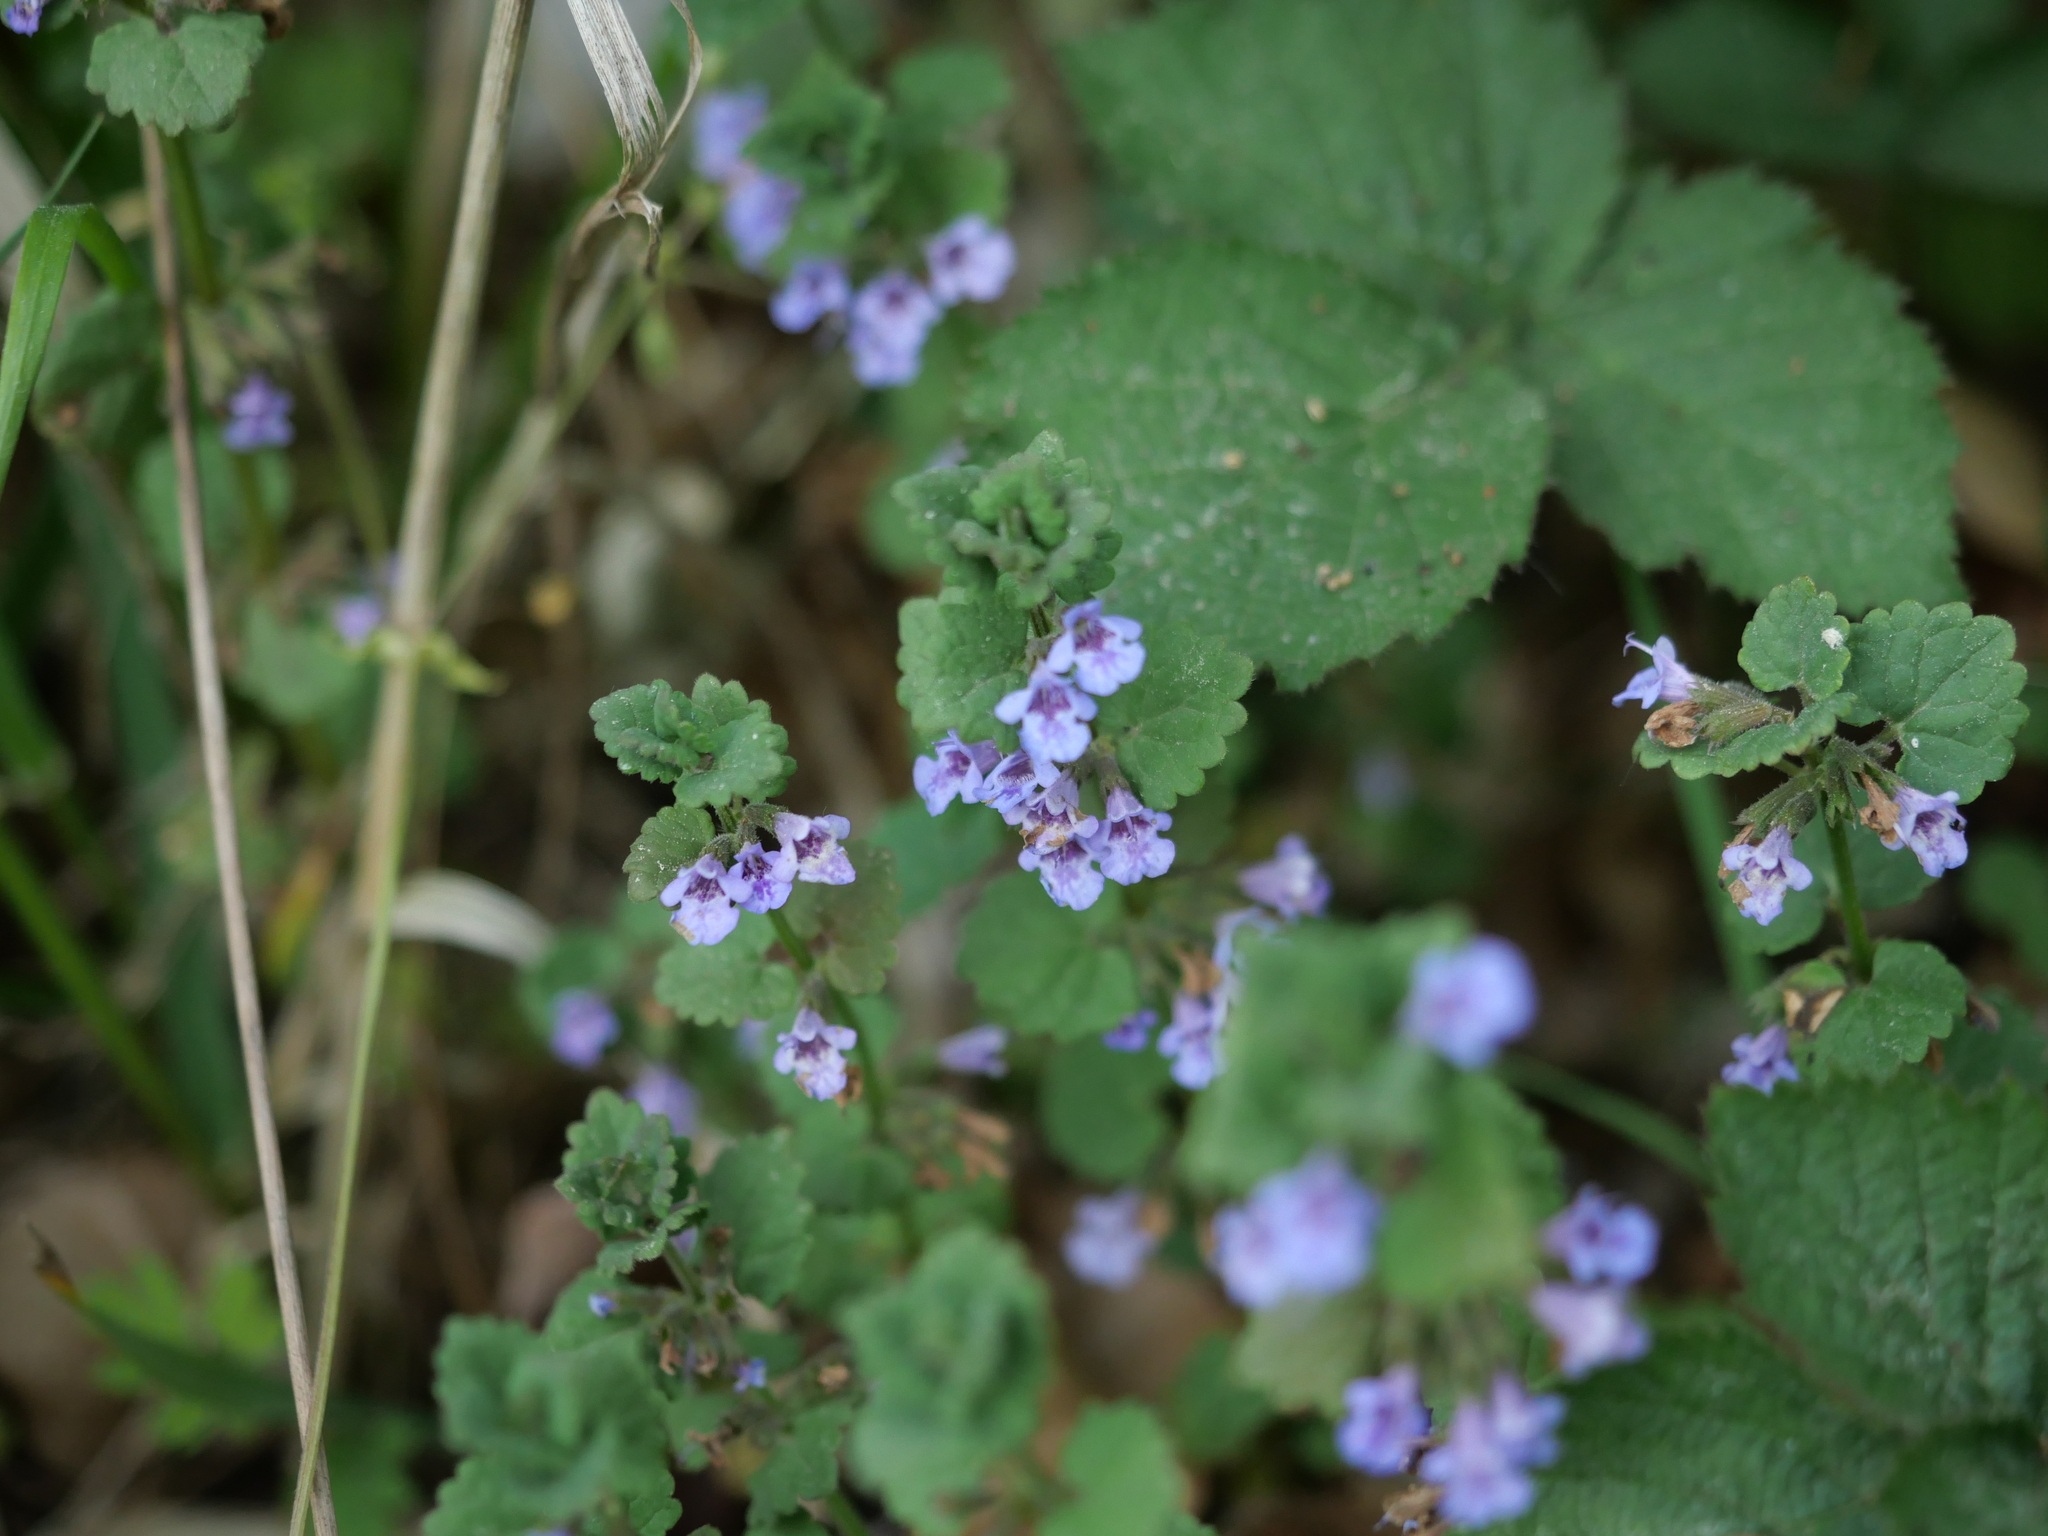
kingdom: Plantae
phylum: Tracheophyta
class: Magnoliopsida
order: Lamiales
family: Lamiaceae
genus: Glechoma
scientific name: Glechoma hederacea
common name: Ground ivy
